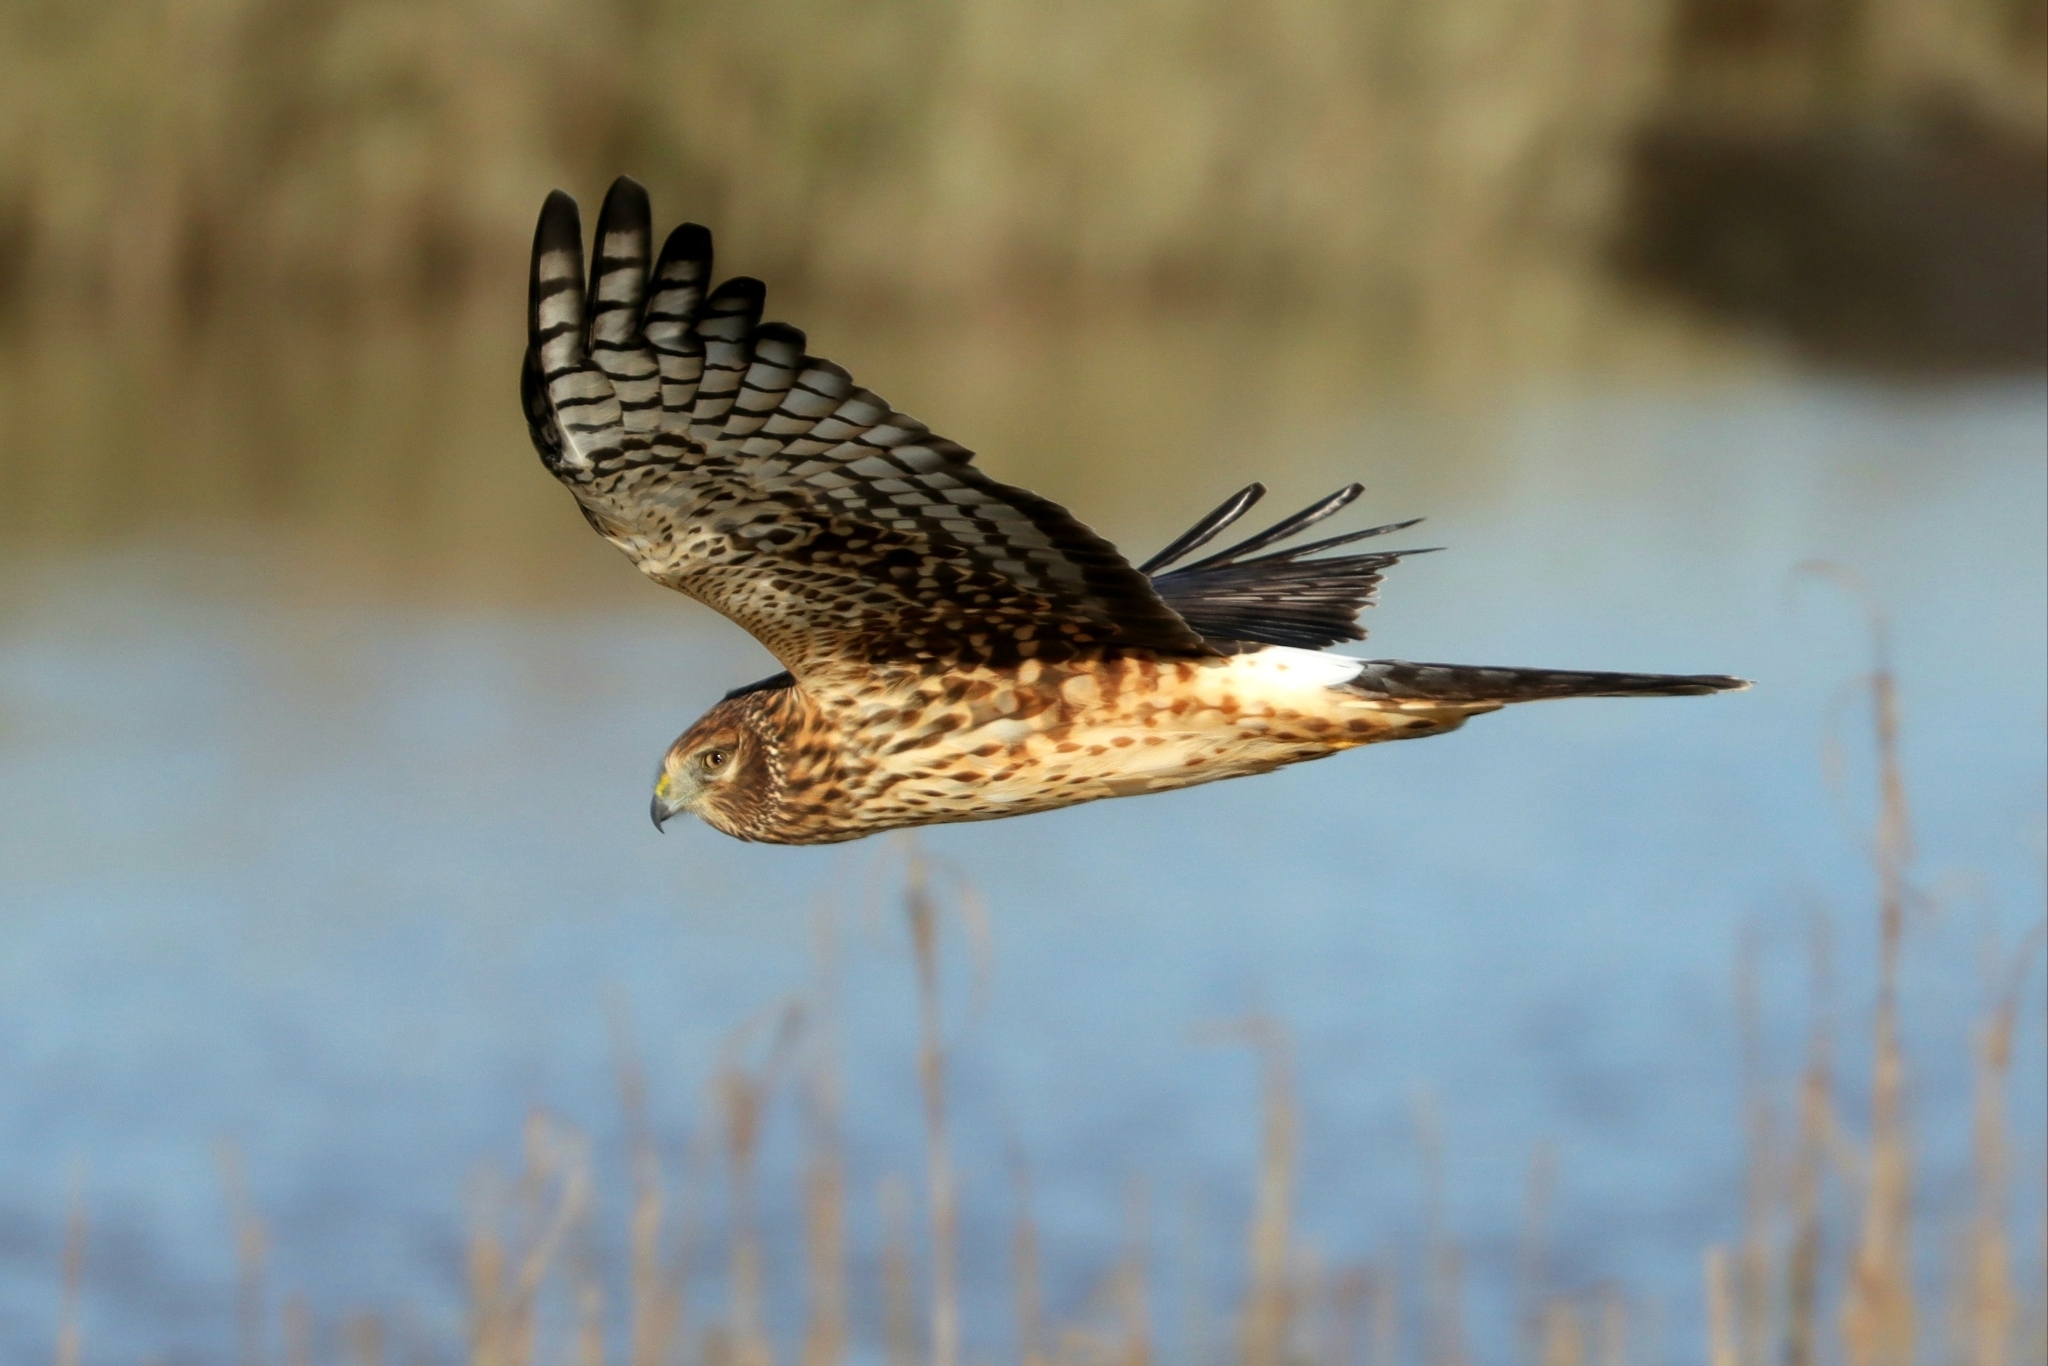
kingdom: Animalia
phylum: Chordata
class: Aves
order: Accipitriformes
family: Accipitridae
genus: Circus
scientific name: Circus cyaneus
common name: Hen harrier
